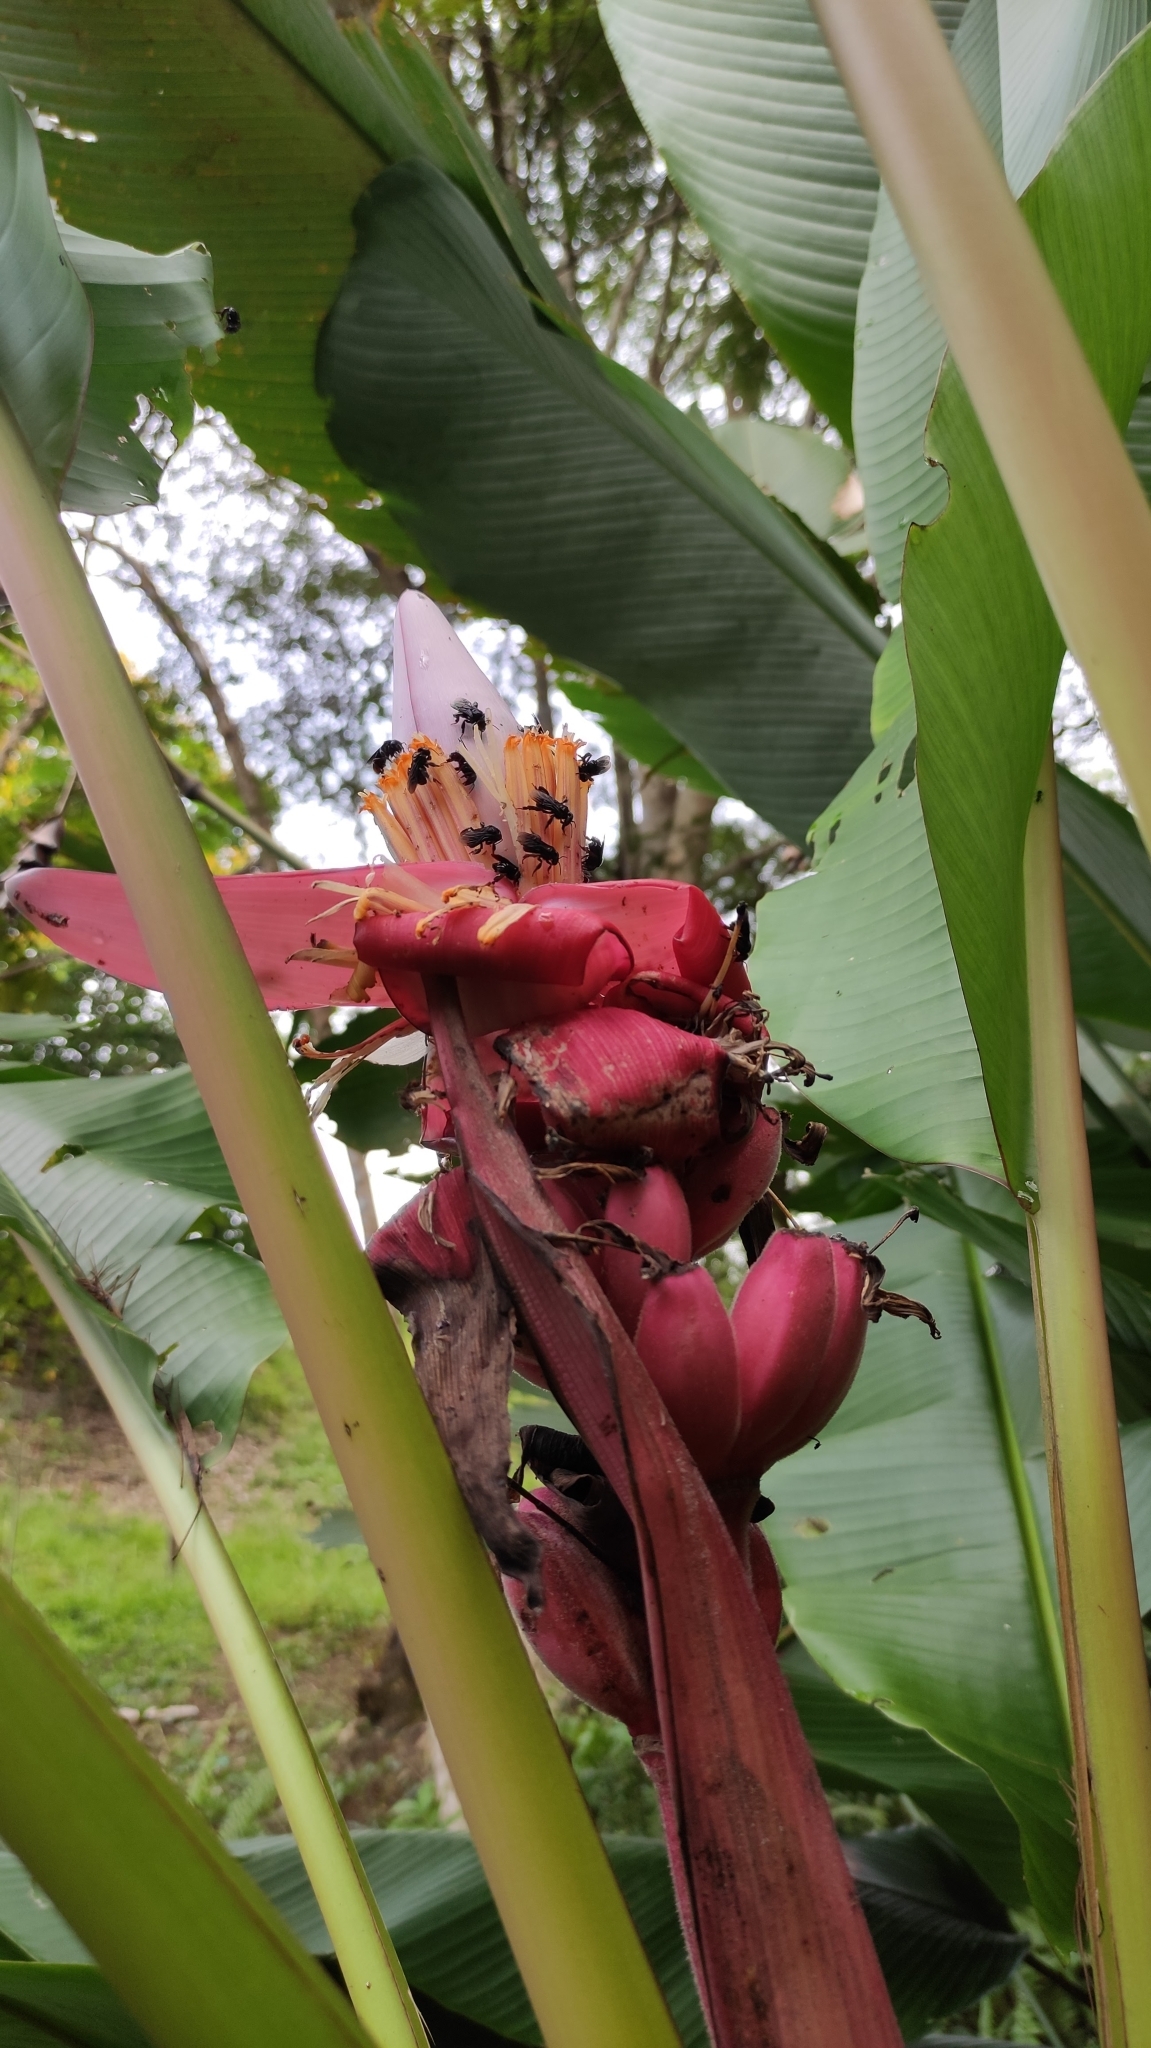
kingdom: Plantae
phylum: Tracheophyta
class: Liliopsida
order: Zingiberales
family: Musaceae
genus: Musa
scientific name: Musa velutina
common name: Pink velvet banana
